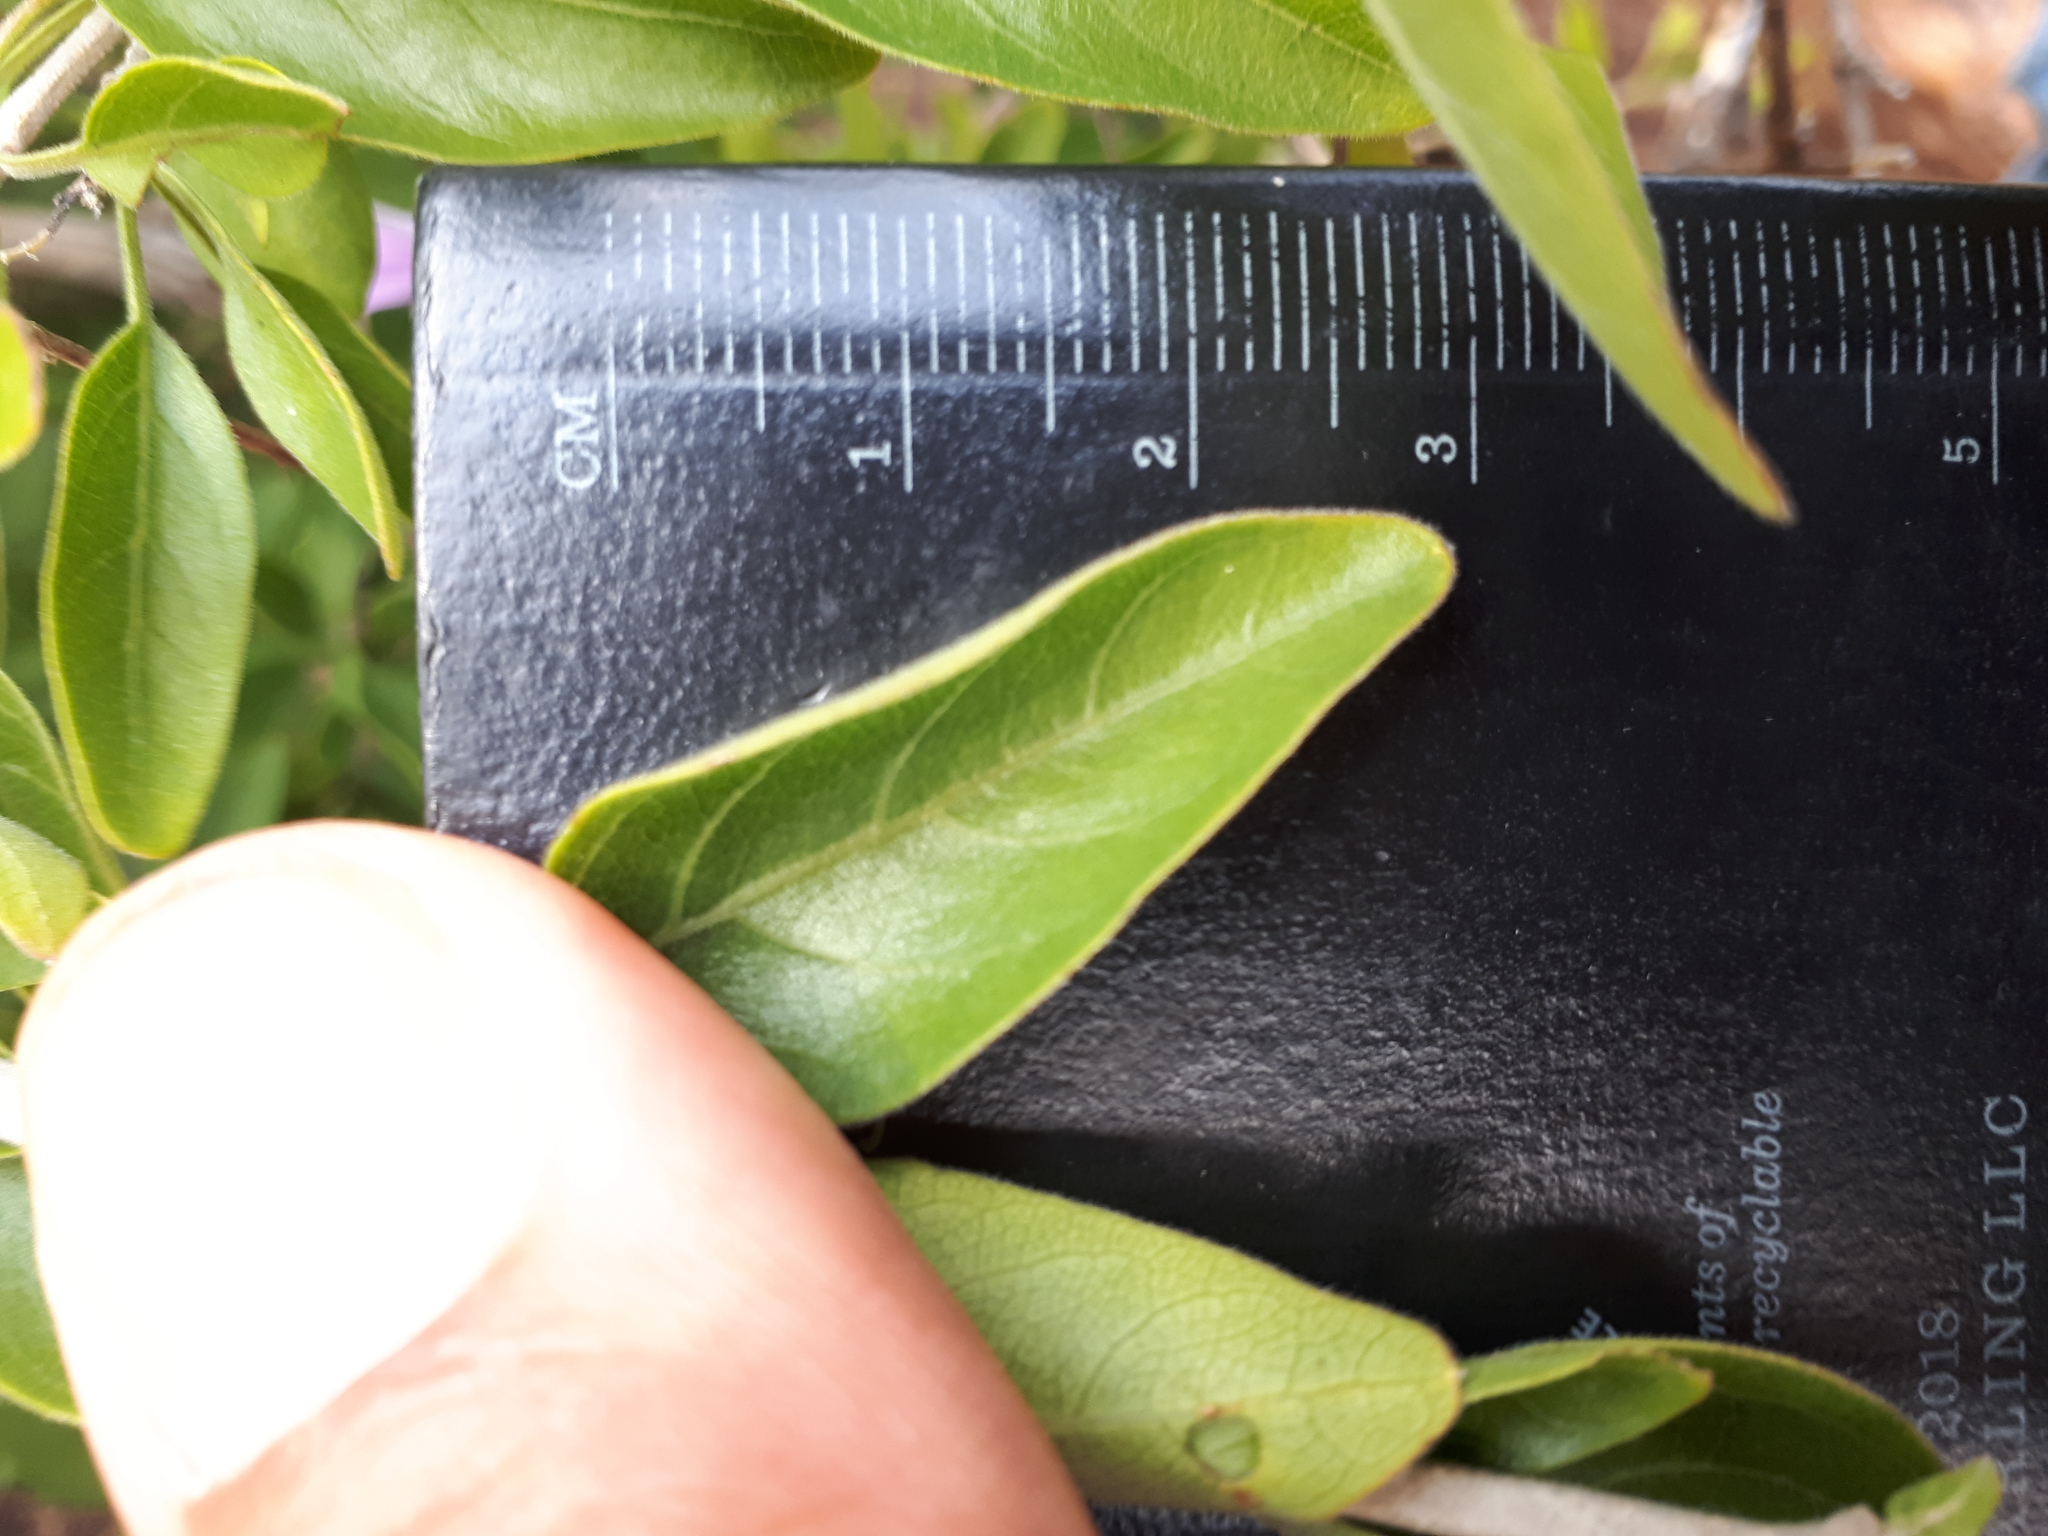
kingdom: Plantae
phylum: Tracheophyta
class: Magnoliopsida
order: Lamiales
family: Acanthaceae
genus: Chorisochora
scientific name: Chorisochora transvaalensis
